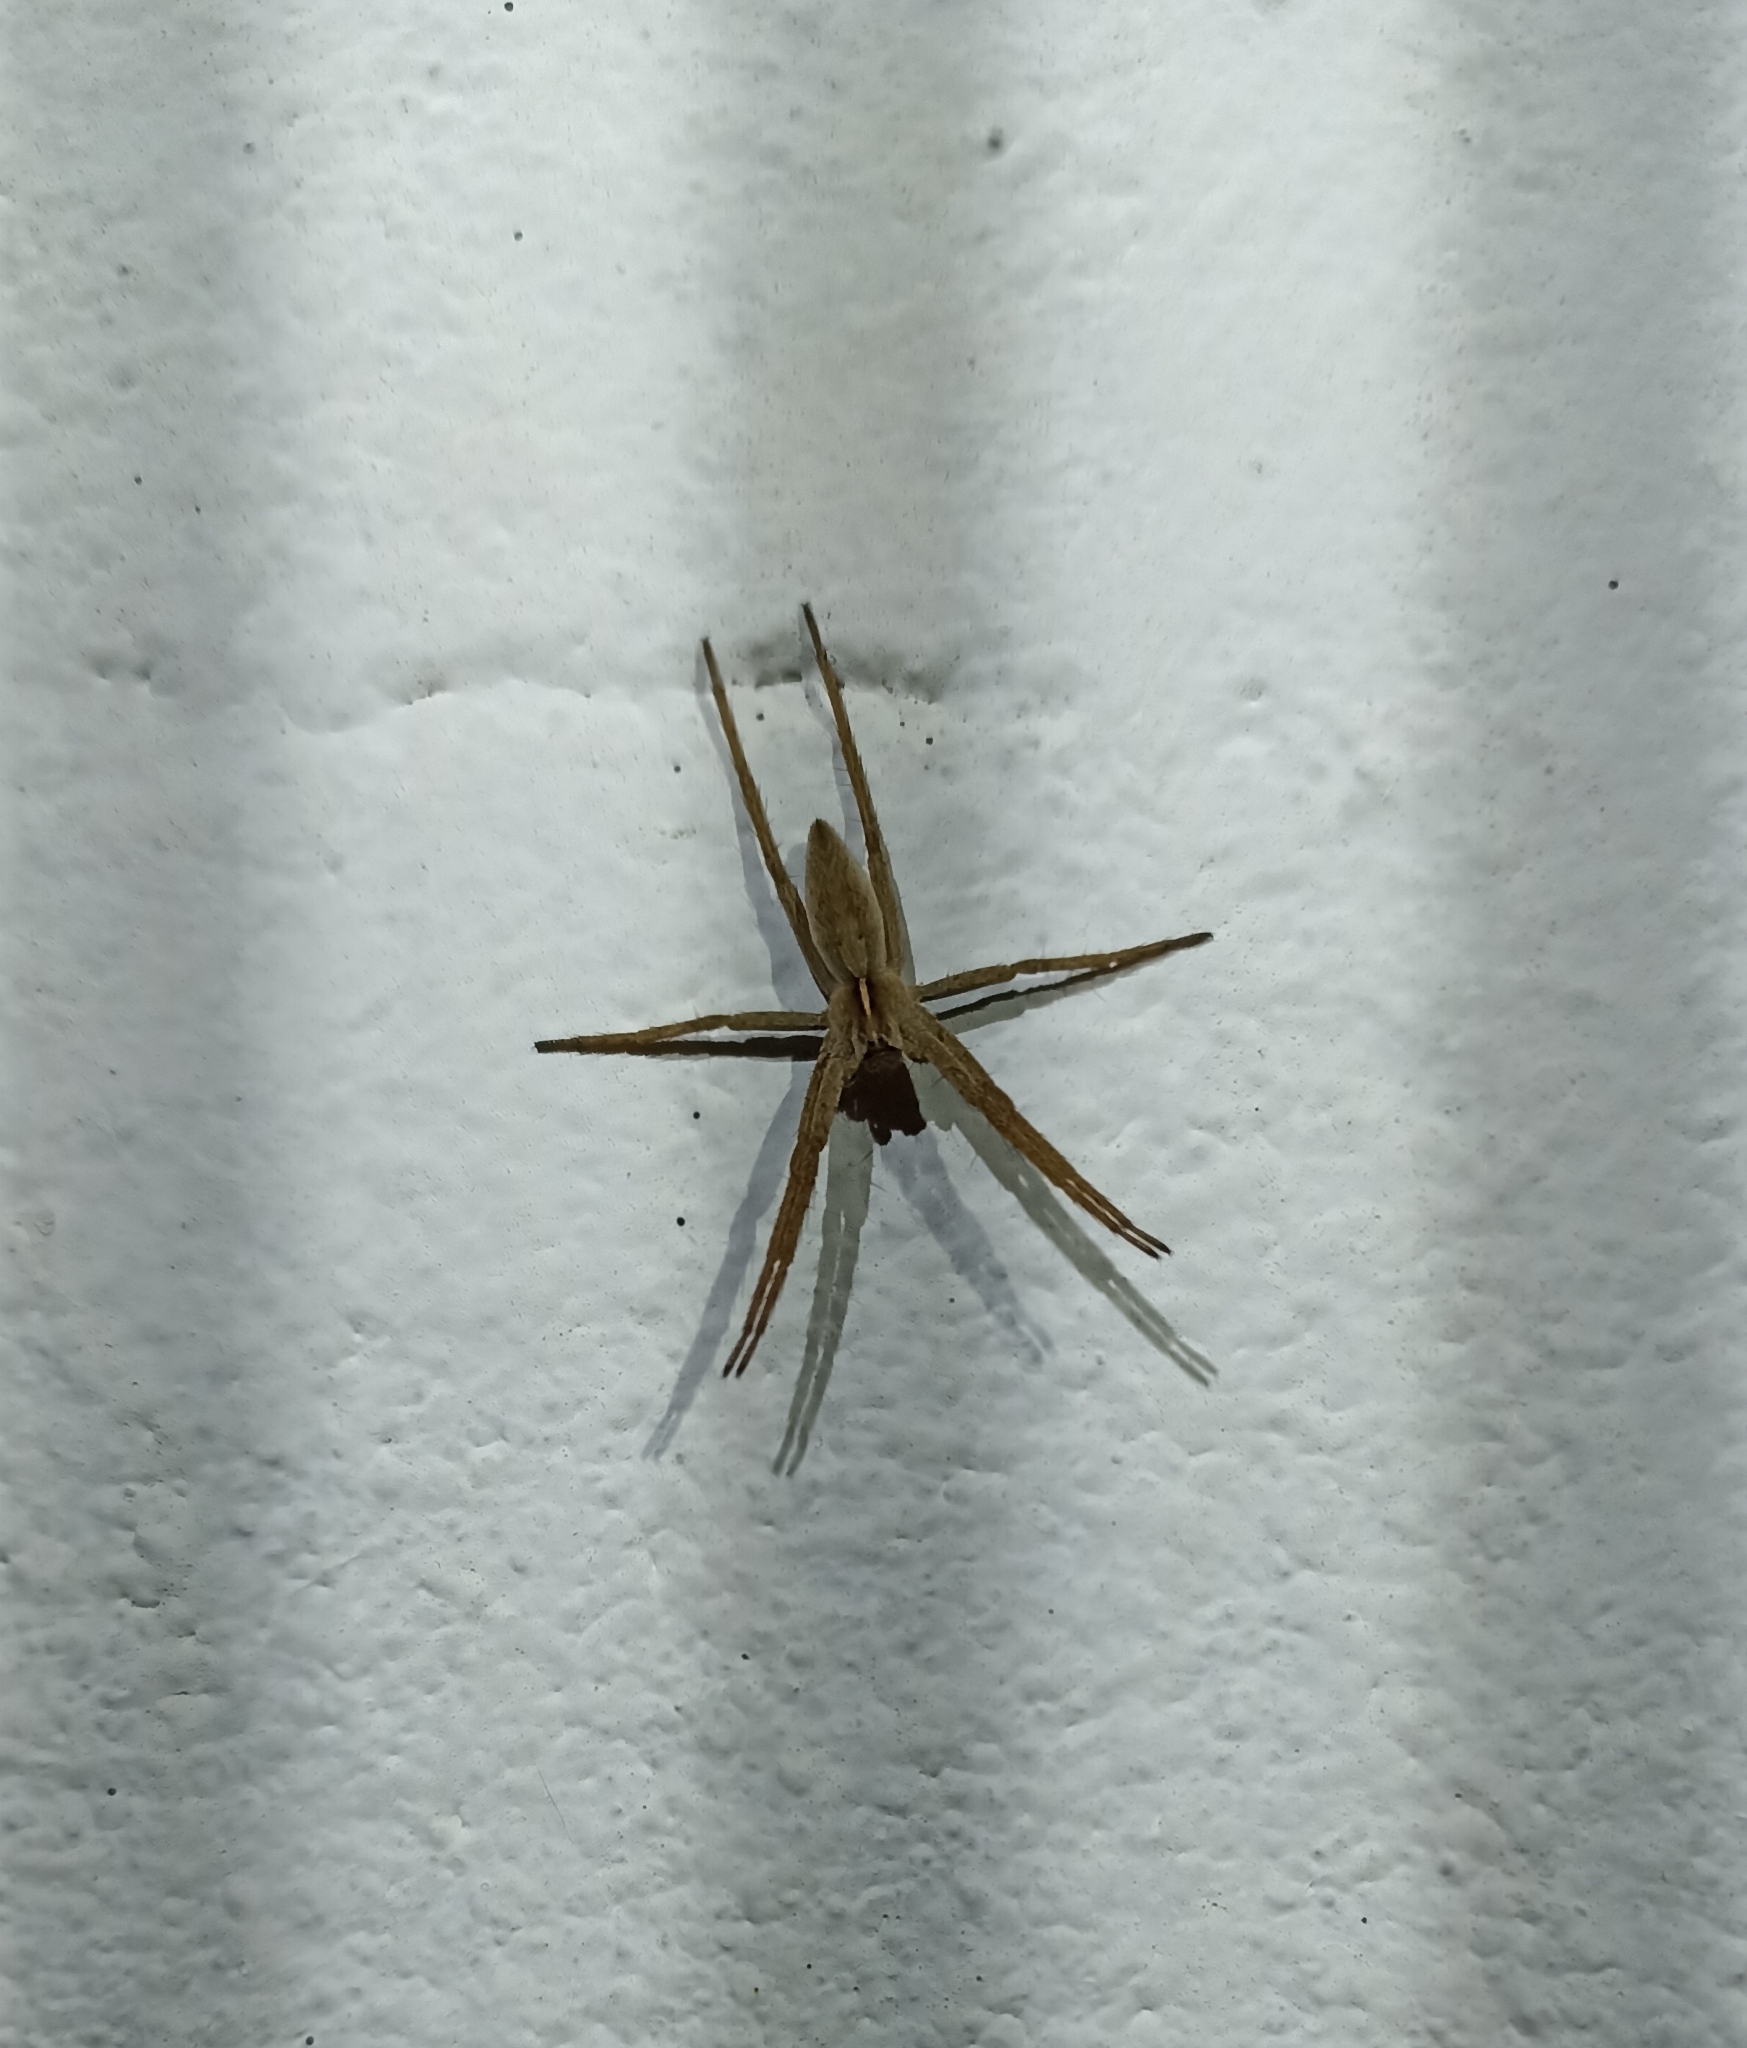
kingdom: Animalia
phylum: Arthropoda
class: Arachnida
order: Araneae
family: Pisauridae
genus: Pisaura
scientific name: Pisaura mirabilis
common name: Tent spider
